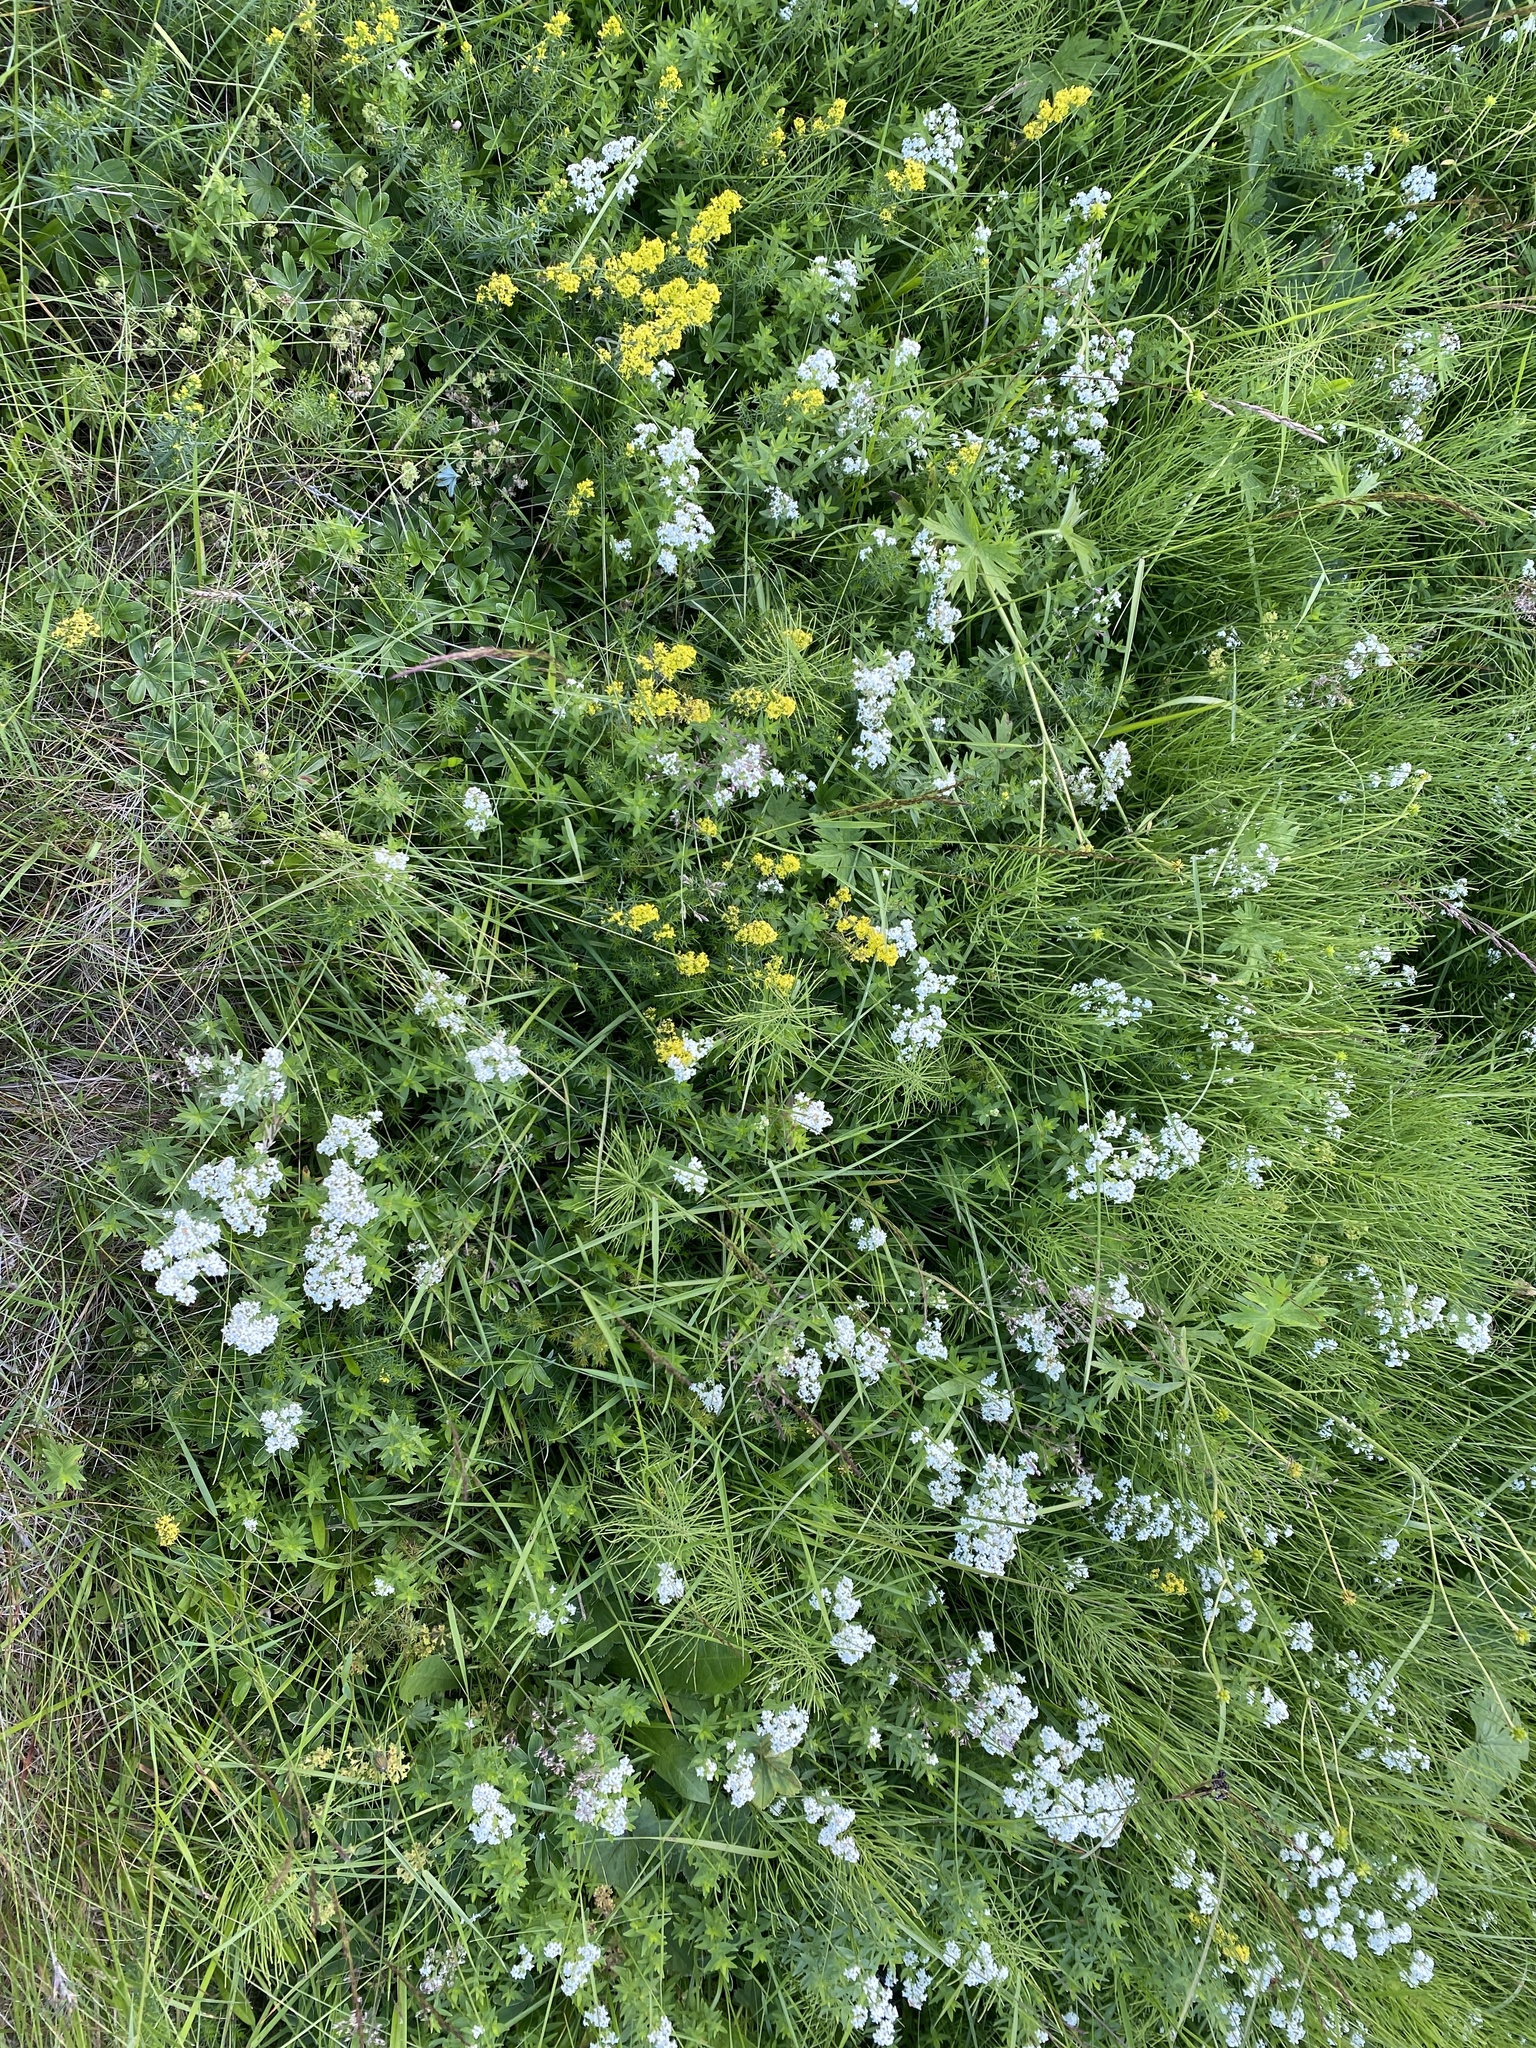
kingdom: Plantae
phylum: Tracheophyta
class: Magnoliopsida
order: Gentianales
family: Rubiaceae
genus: Galium
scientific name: Galium boreale
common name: Northern bedstraw
